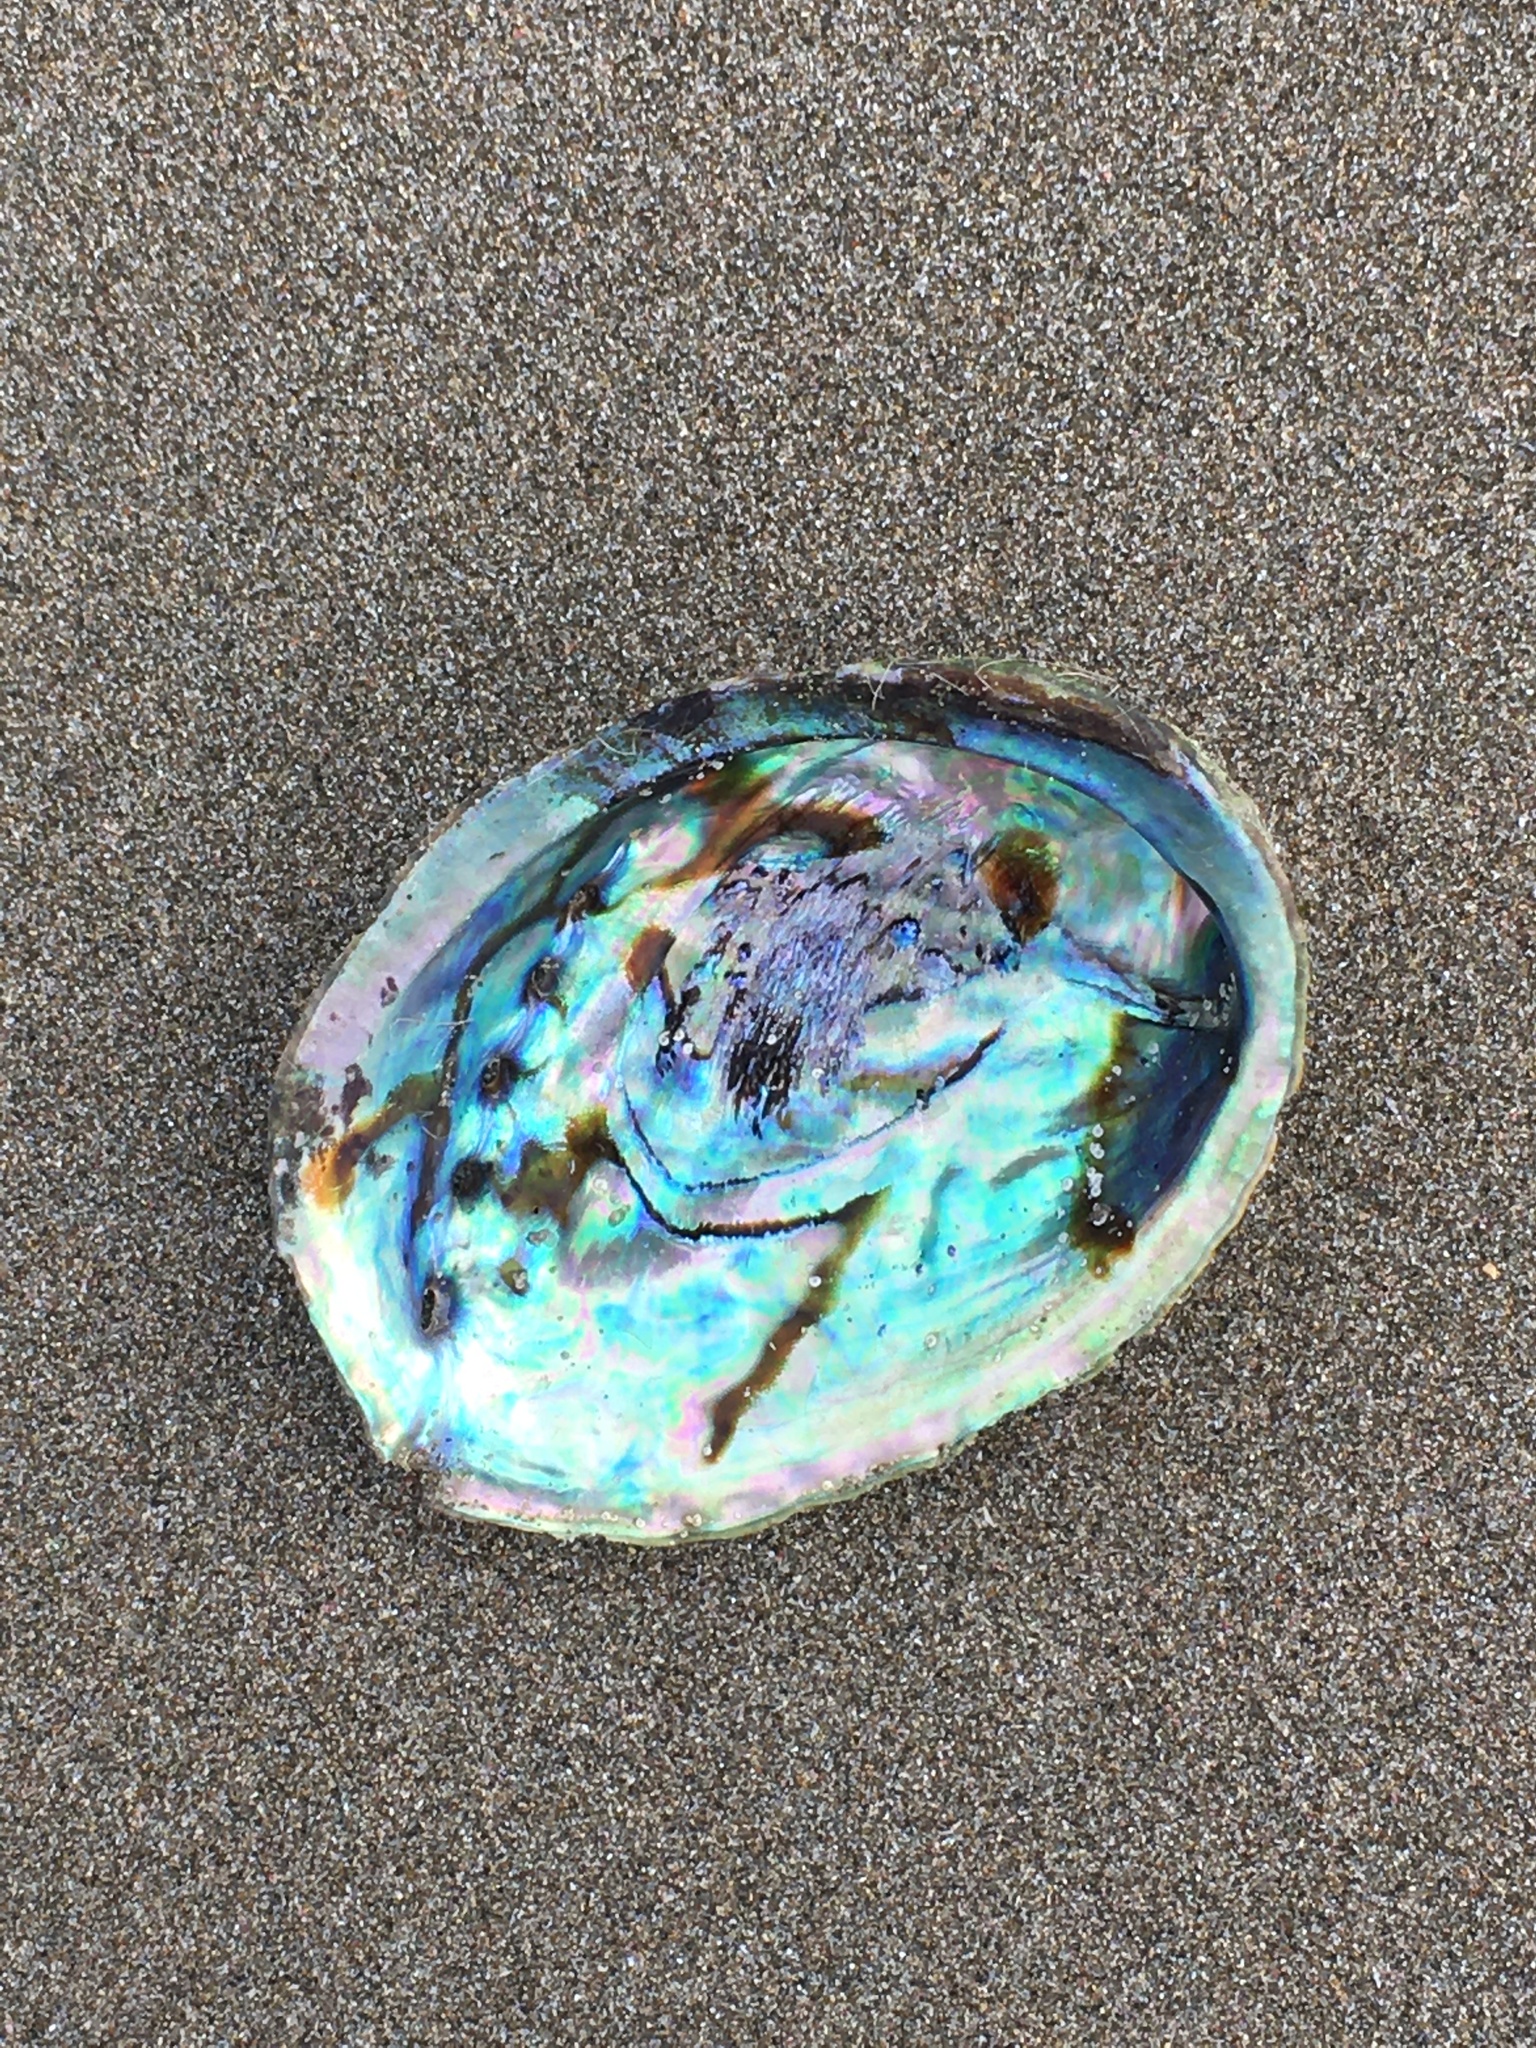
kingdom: Animalia
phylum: Mollusca
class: Gastropoda
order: Lepetellida
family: Haliotidae
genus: Haliotis
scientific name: Haliotis iris
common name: Abalone
